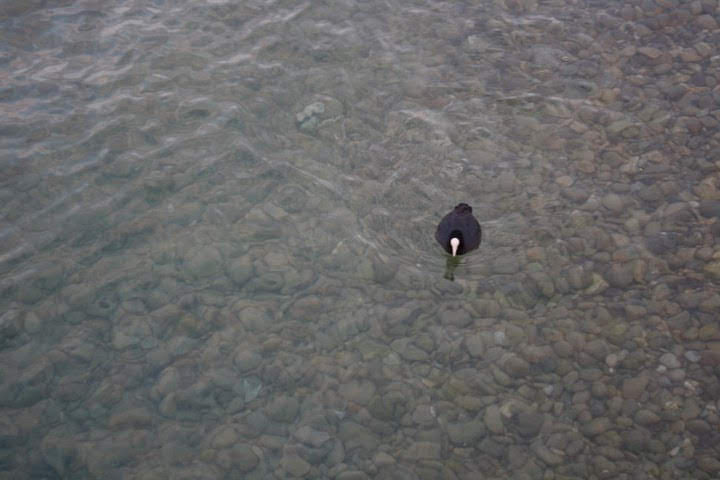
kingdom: Animalia
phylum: Chordata
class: Aves
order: Gruiformes
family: Rallidae
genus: Fulica
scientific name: Fulica atra
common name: Eurasian coot
